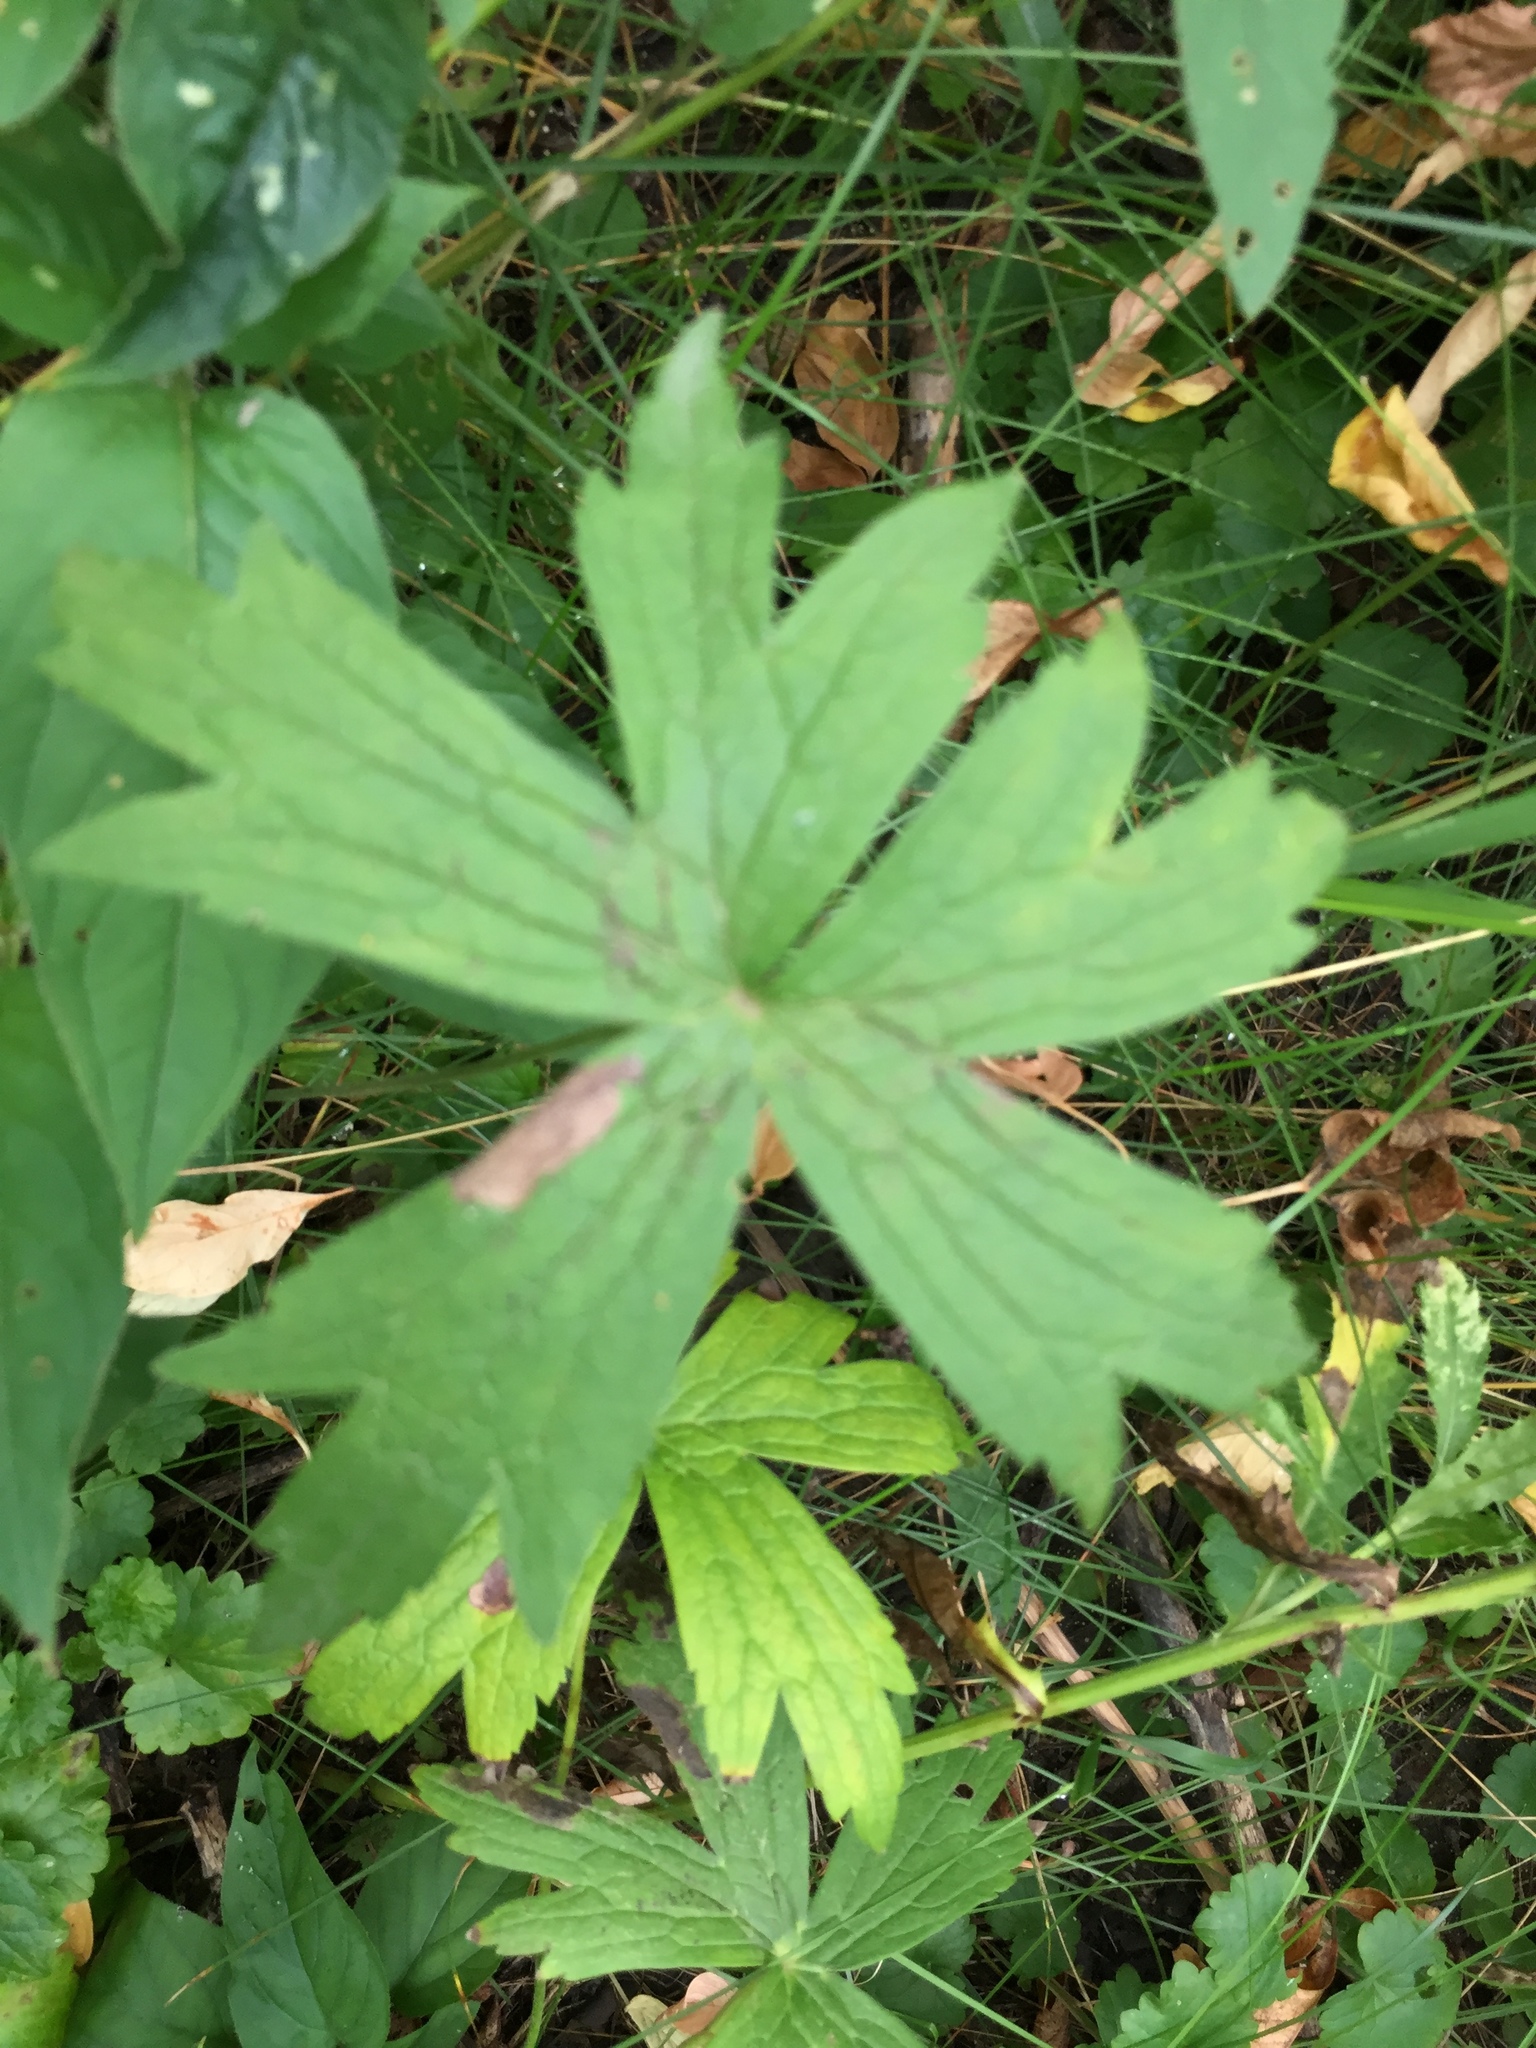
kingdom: Plantae
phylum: Tracheophyta
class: Magnoliopsida
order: Ranunculales
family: Ranunculaceae
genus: Anemonastrum
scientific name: Anemonastrum canadense
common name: Canada anemone
